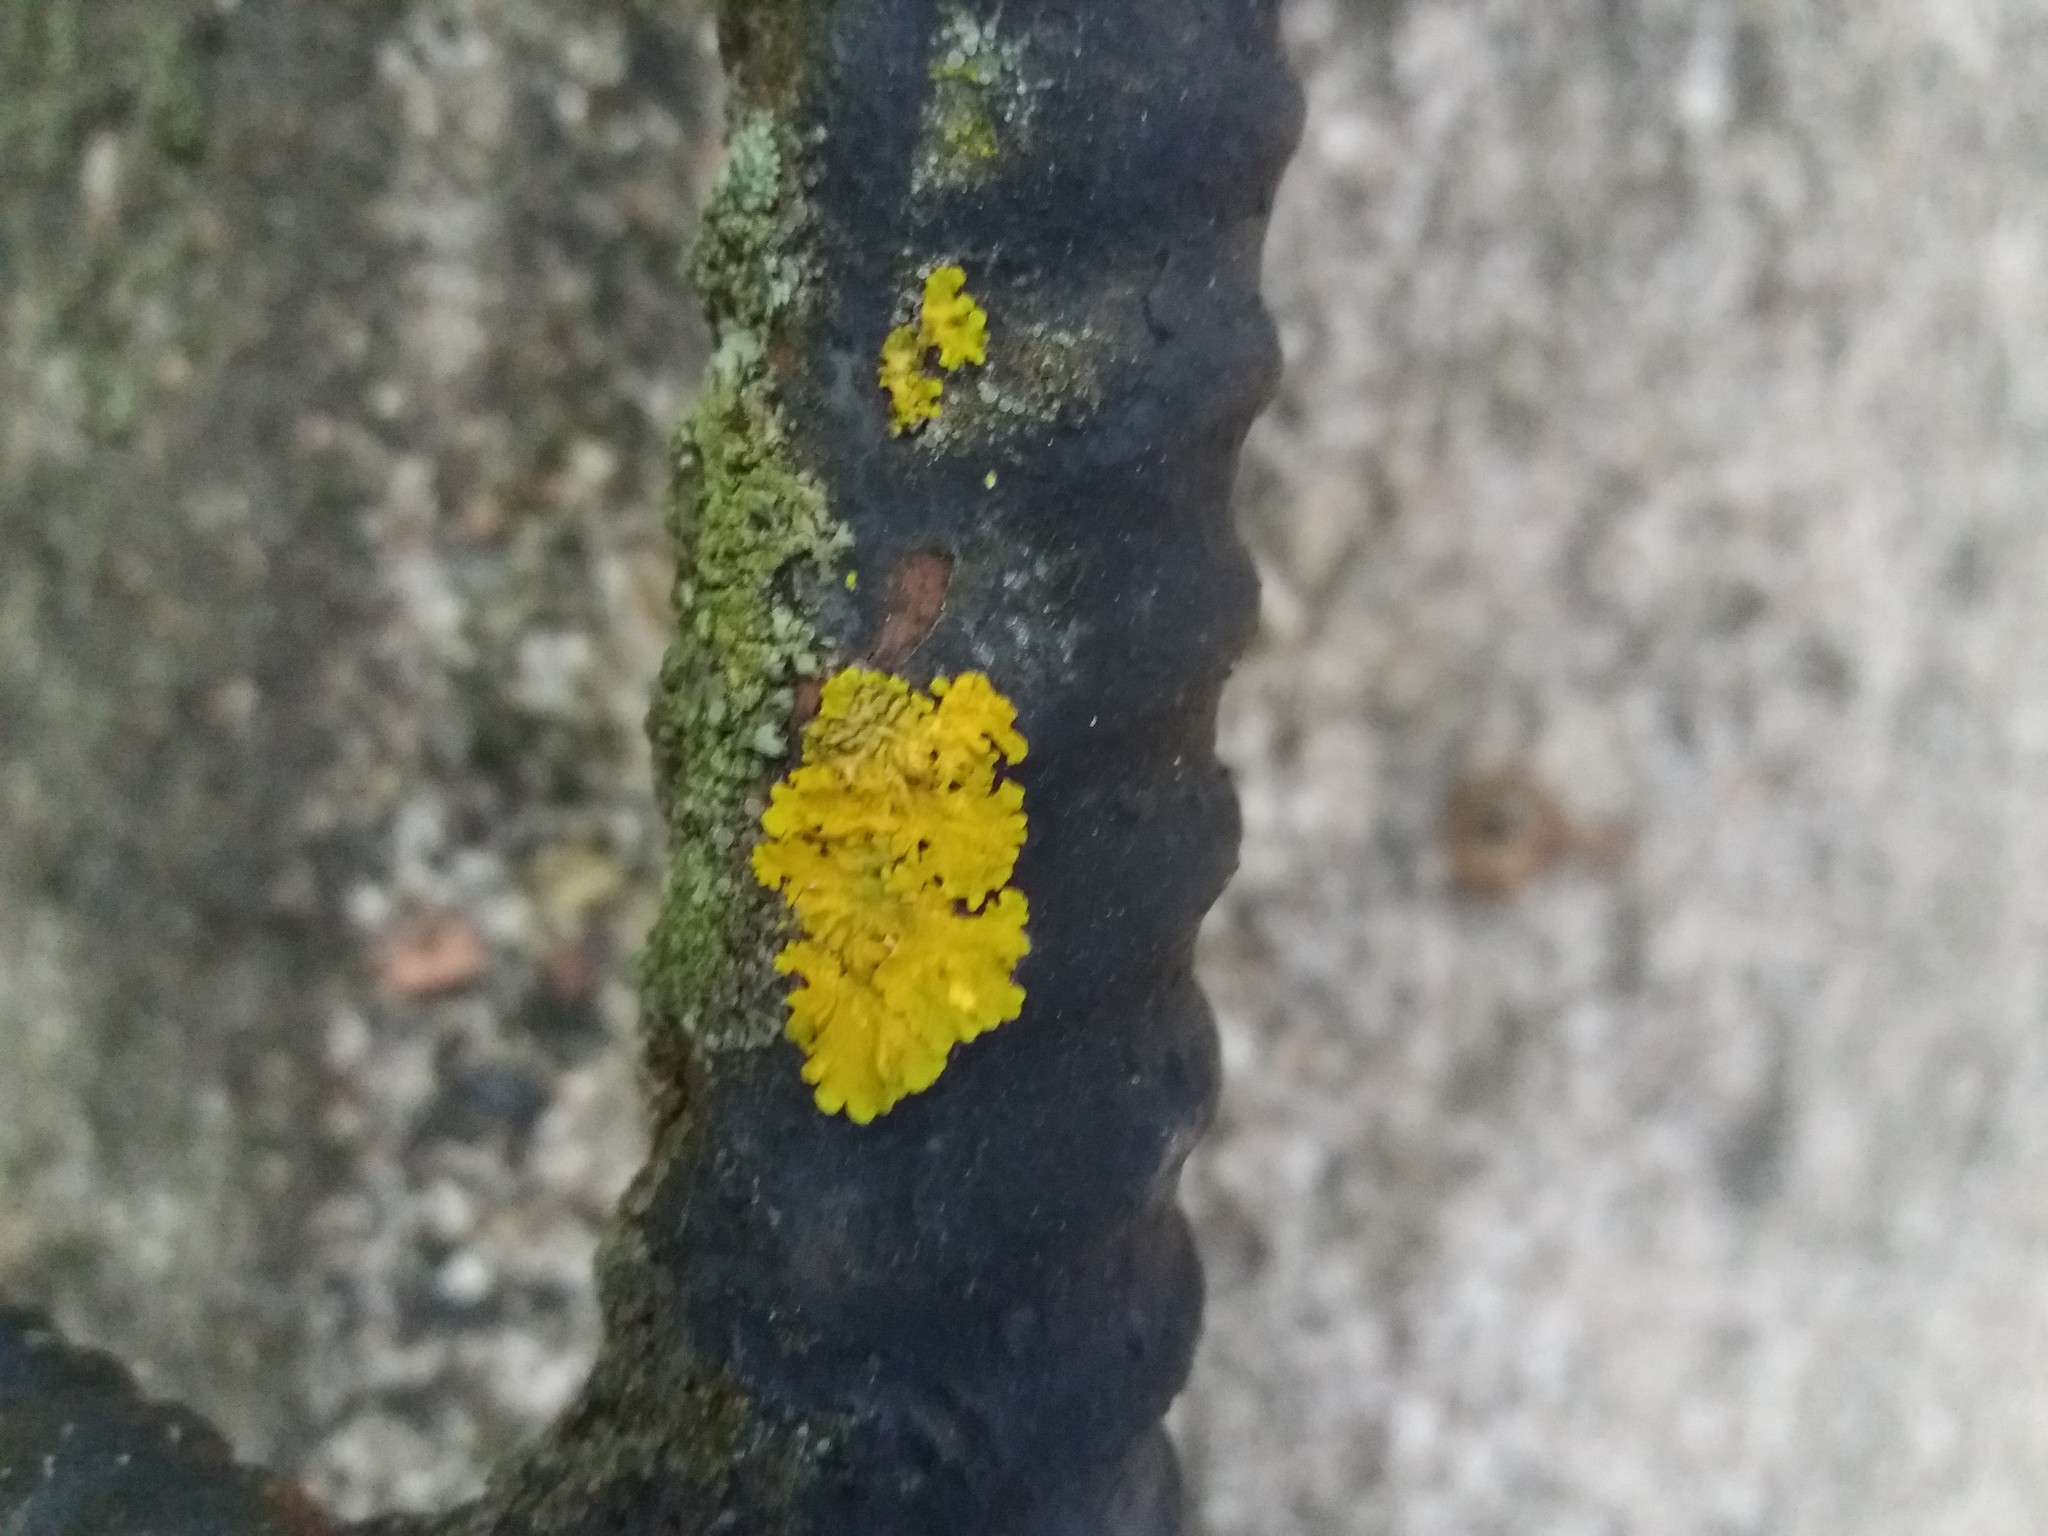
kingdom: Fungi
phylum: Ascomycota
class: Lecanoromycetes
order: Teloschistales
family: Teloschistaceae
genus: Xanthoria
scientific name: Xanthoria parietina
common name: Common orange lichen
